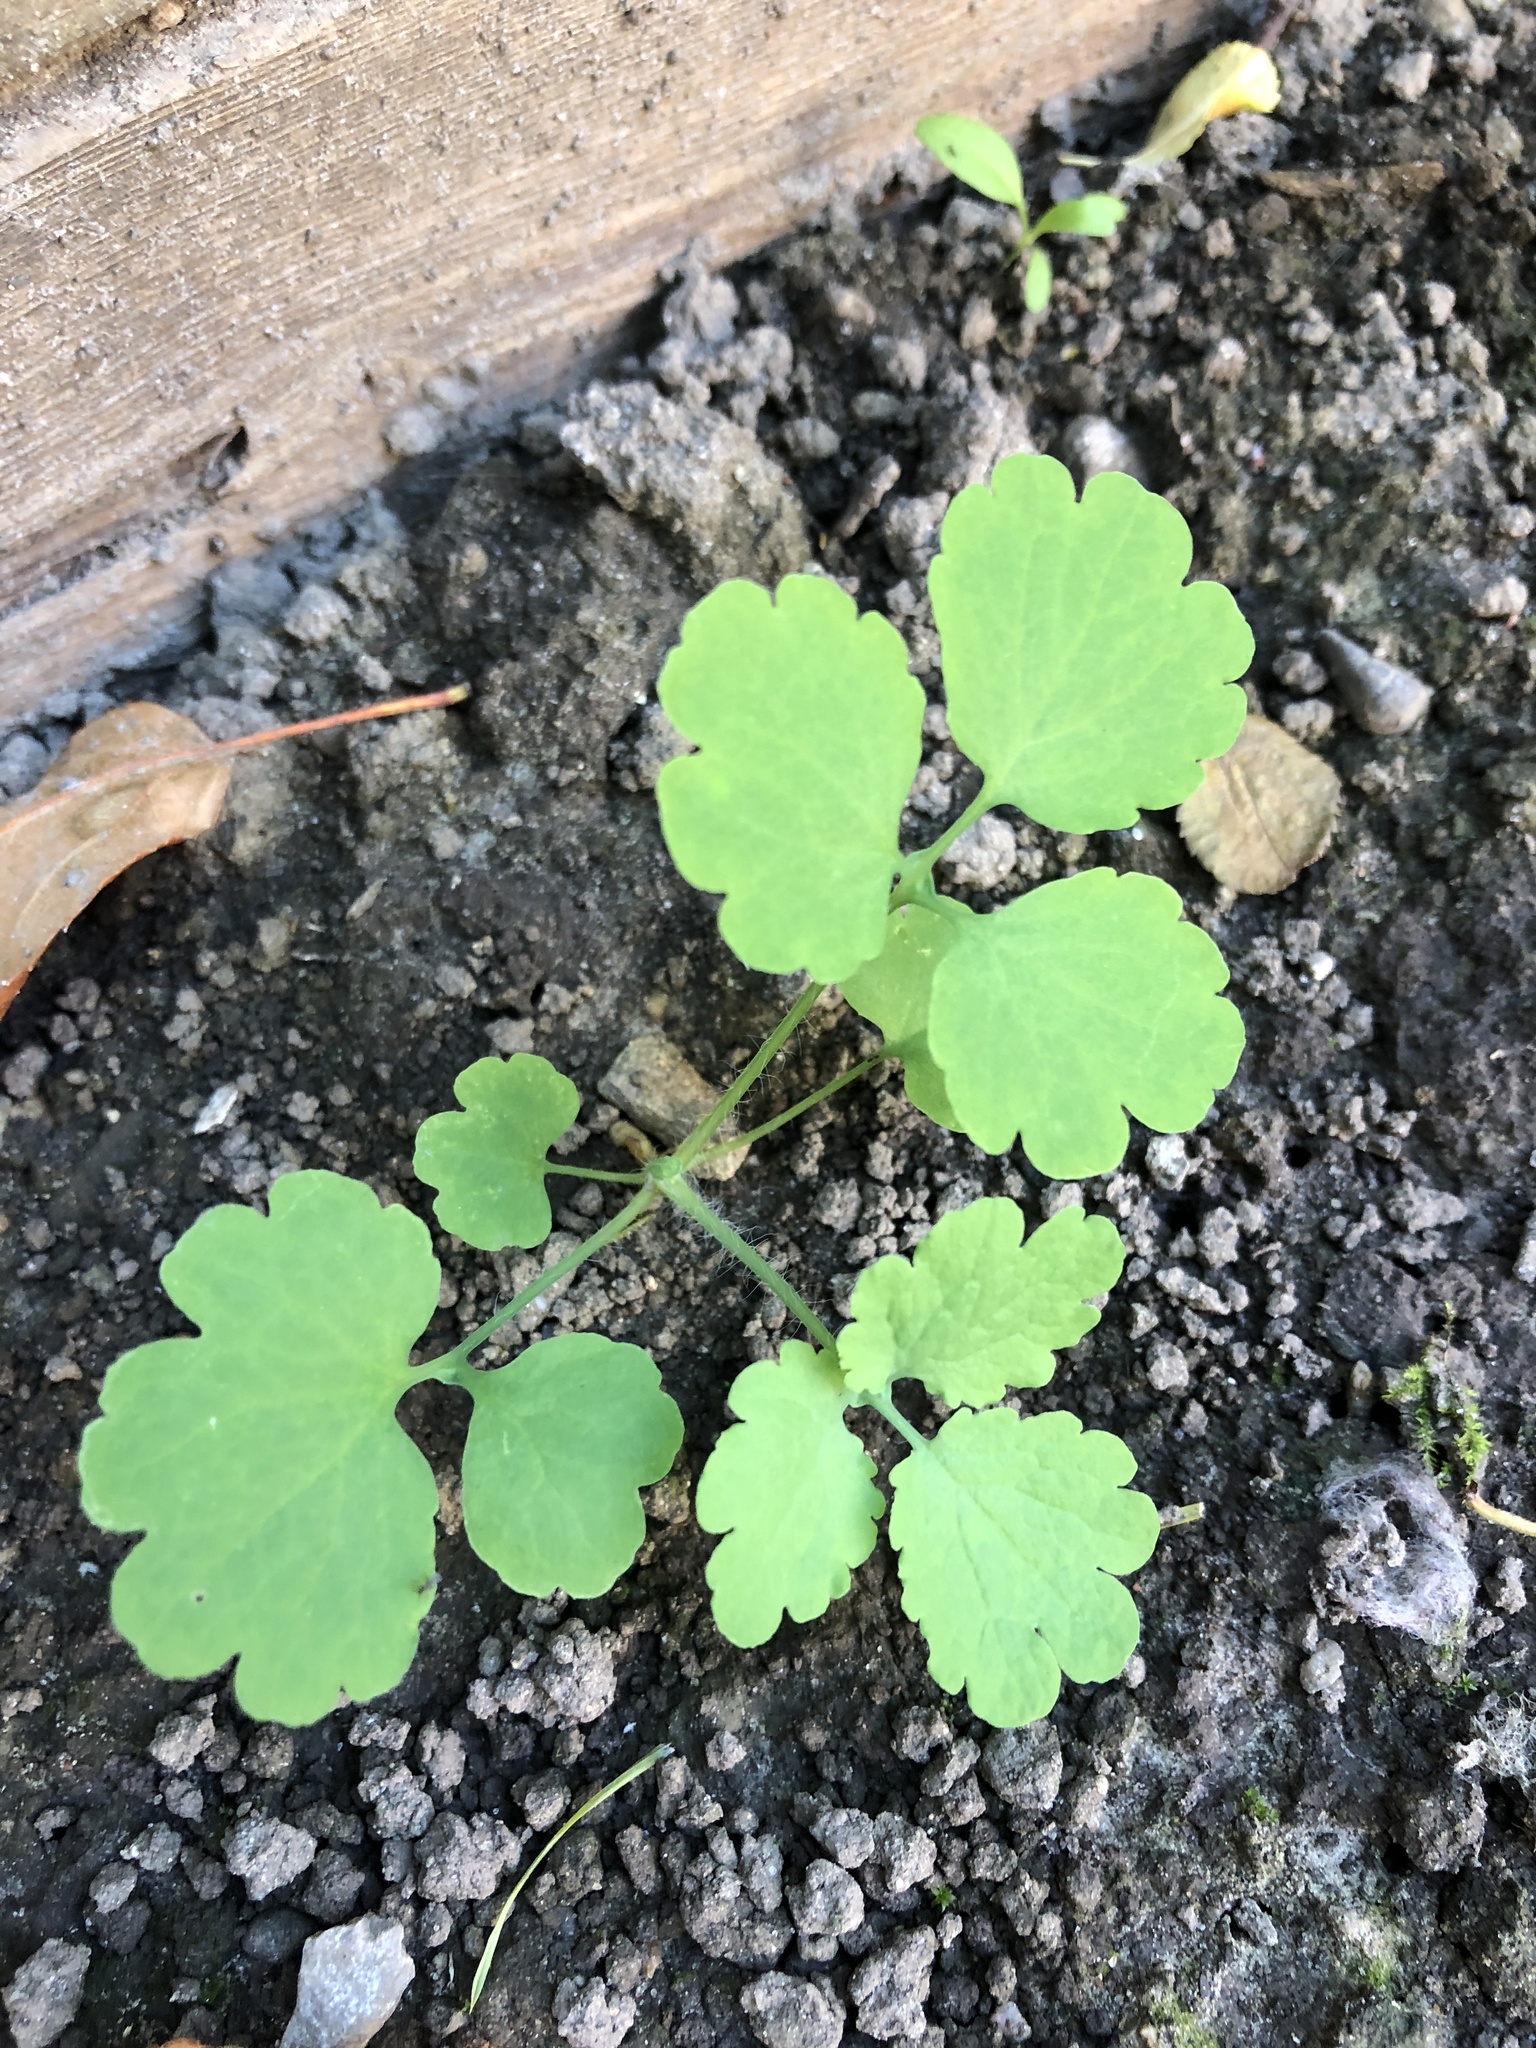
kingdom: Plantae
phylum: Tracheophyta
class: Magnoliopsida
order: Ranunculales
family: Papaveraceae
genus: Chelidonium
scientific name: Chelidonium majus
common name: Greater celandine
